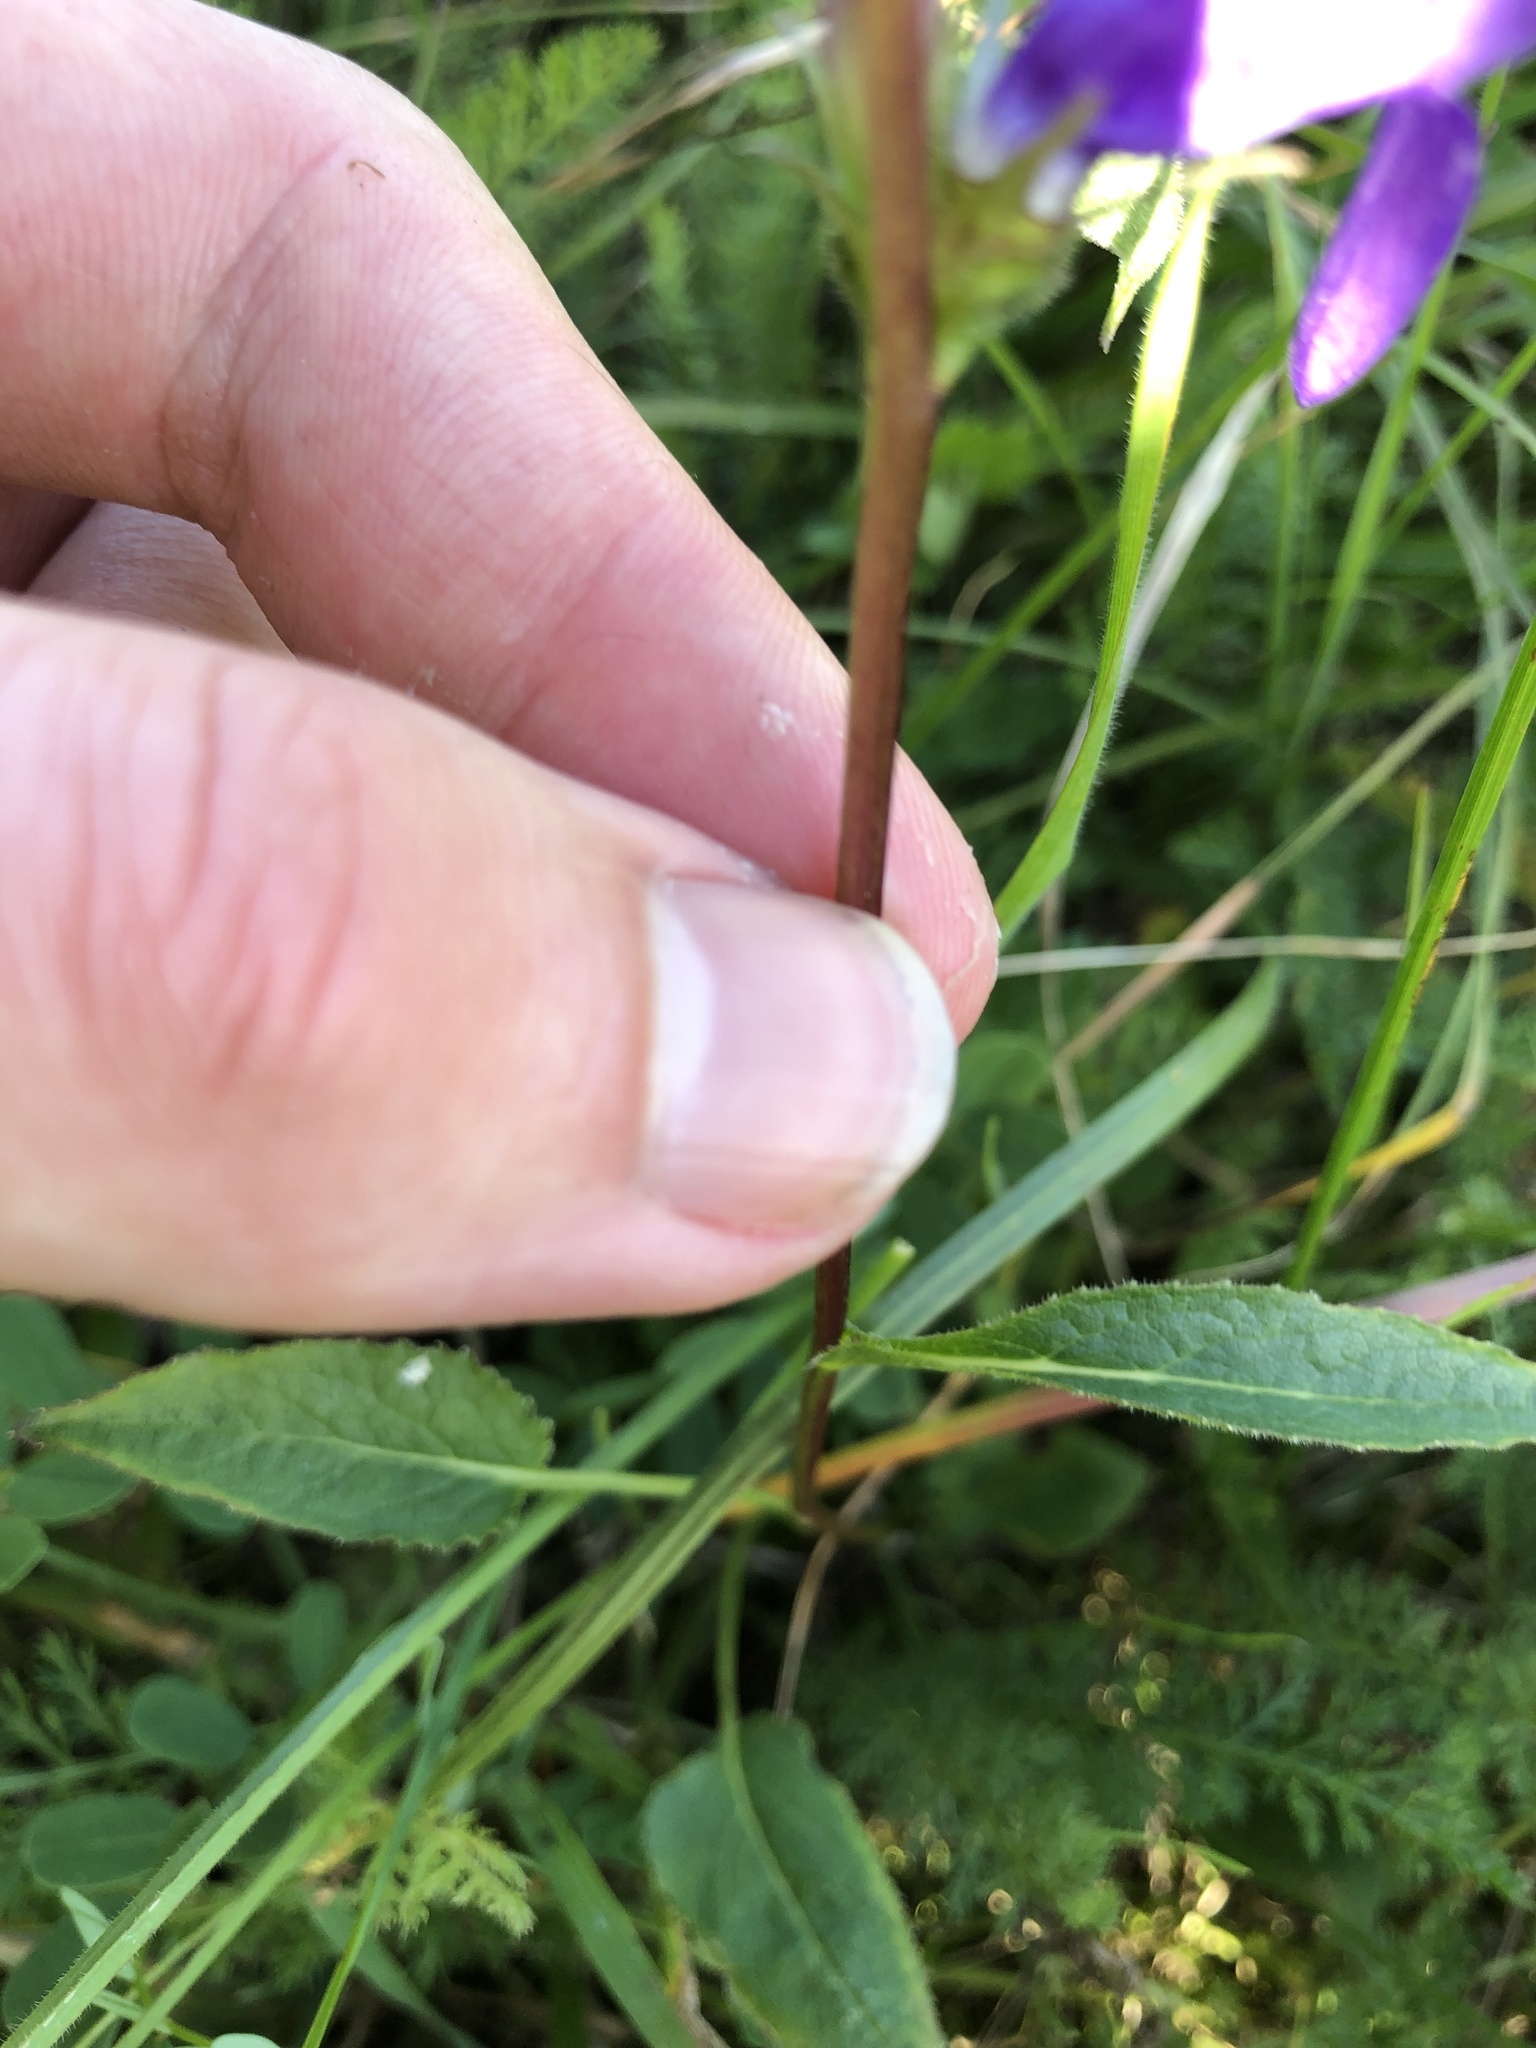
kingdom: Plantae
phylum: Tracheophyta
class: Magnoliopsida
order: Asterales
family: Campanulaceae
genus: Campanula
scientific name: Campanula glomerata
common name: Clustered bellflower
